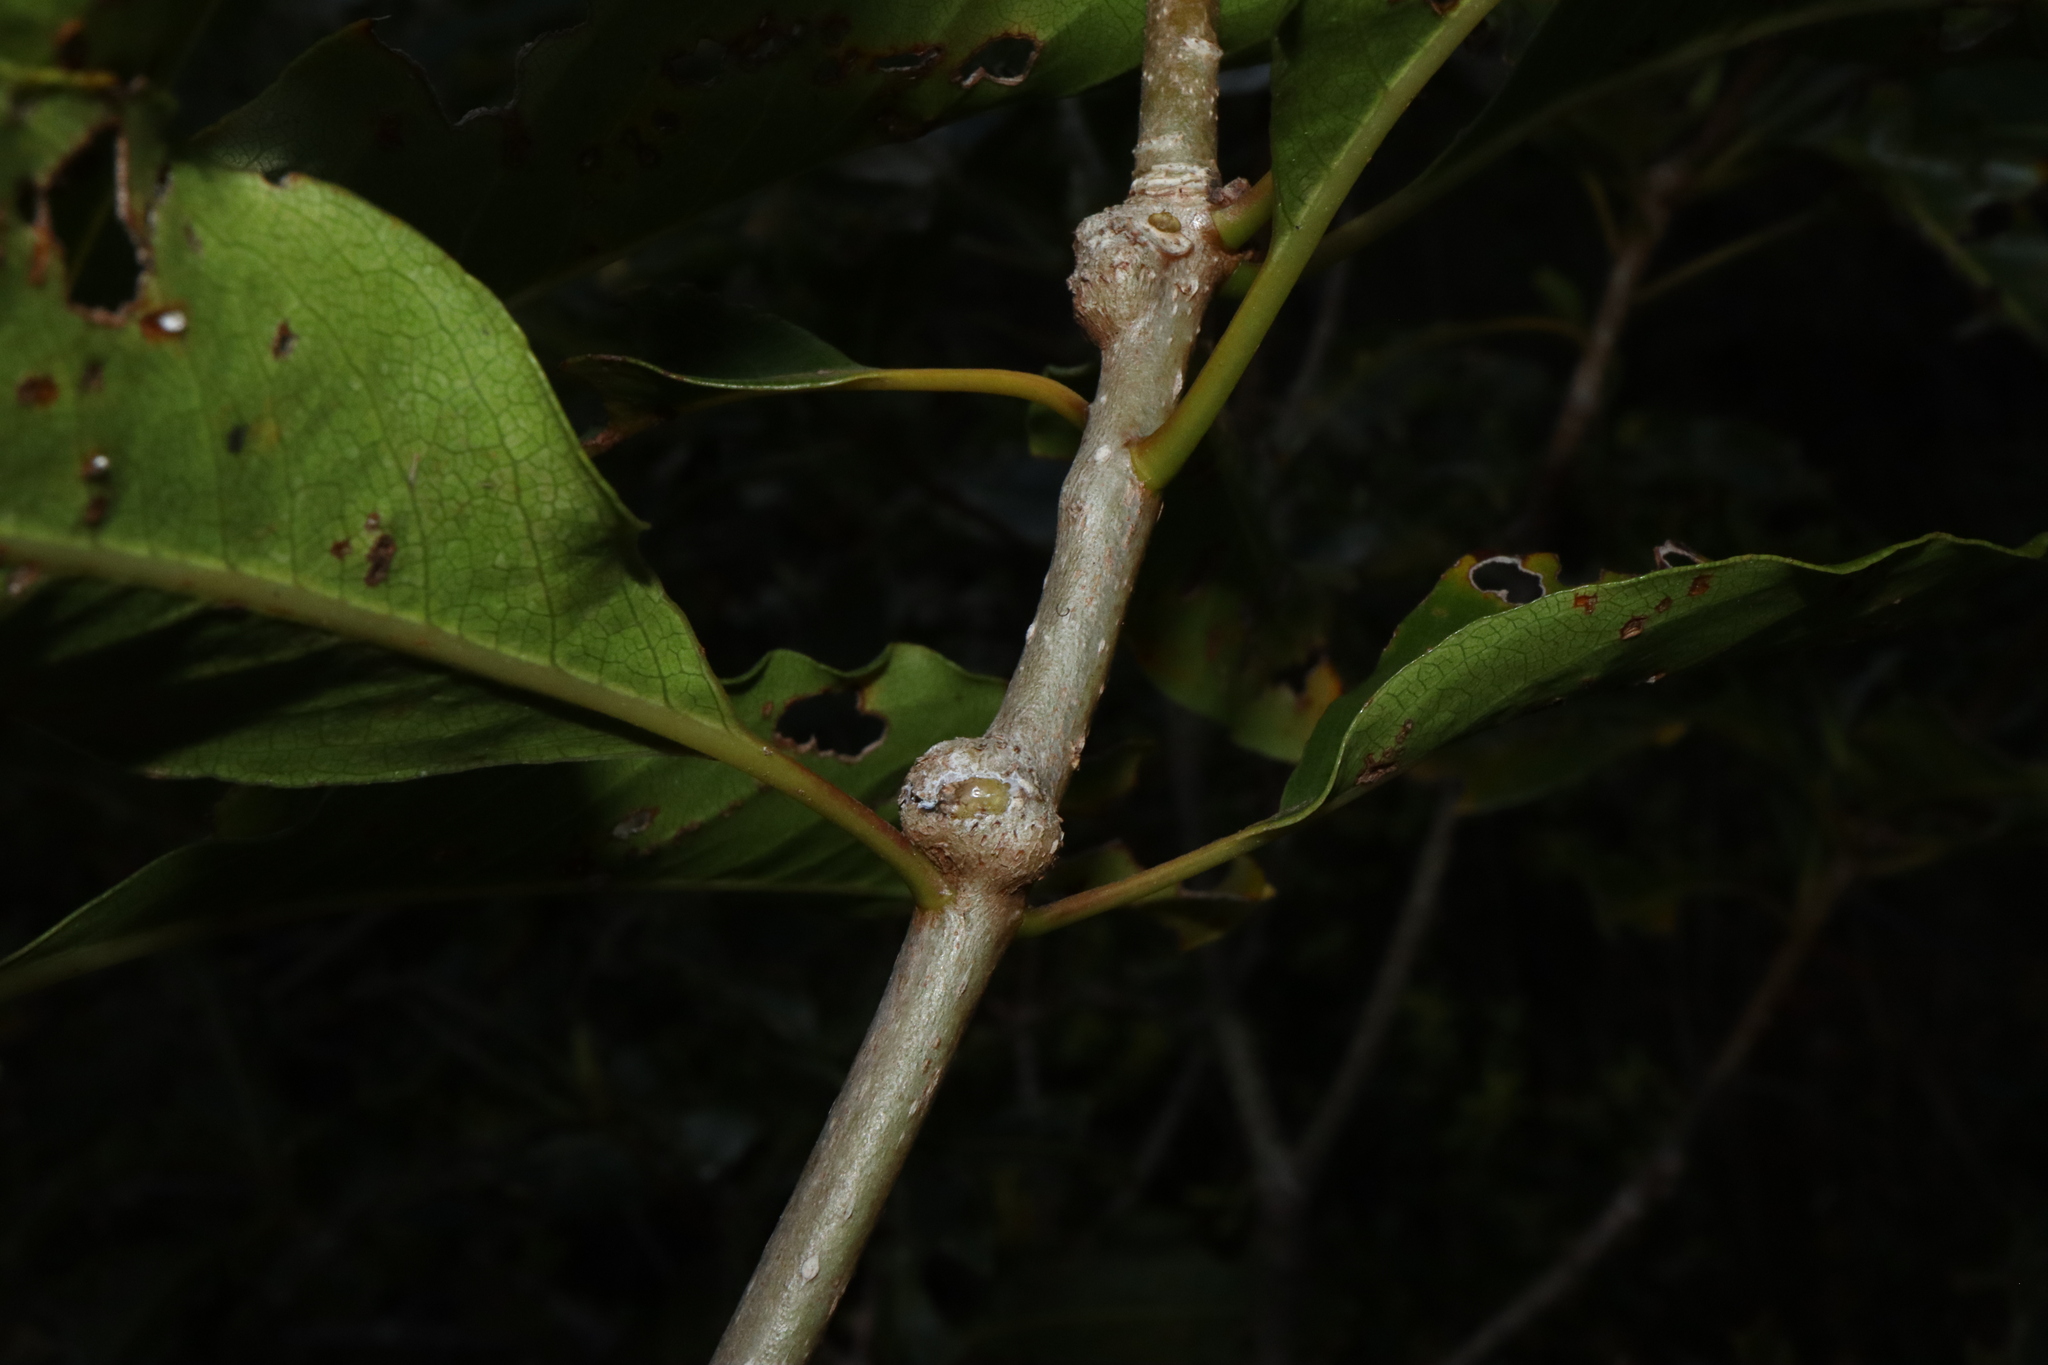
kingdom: Animalia
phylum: Arthropoda
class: Insecta
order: Diptera
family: Agromyzidae
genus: Phytoliriomyza
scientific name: Phytoliriomyza pittosporocaulis
